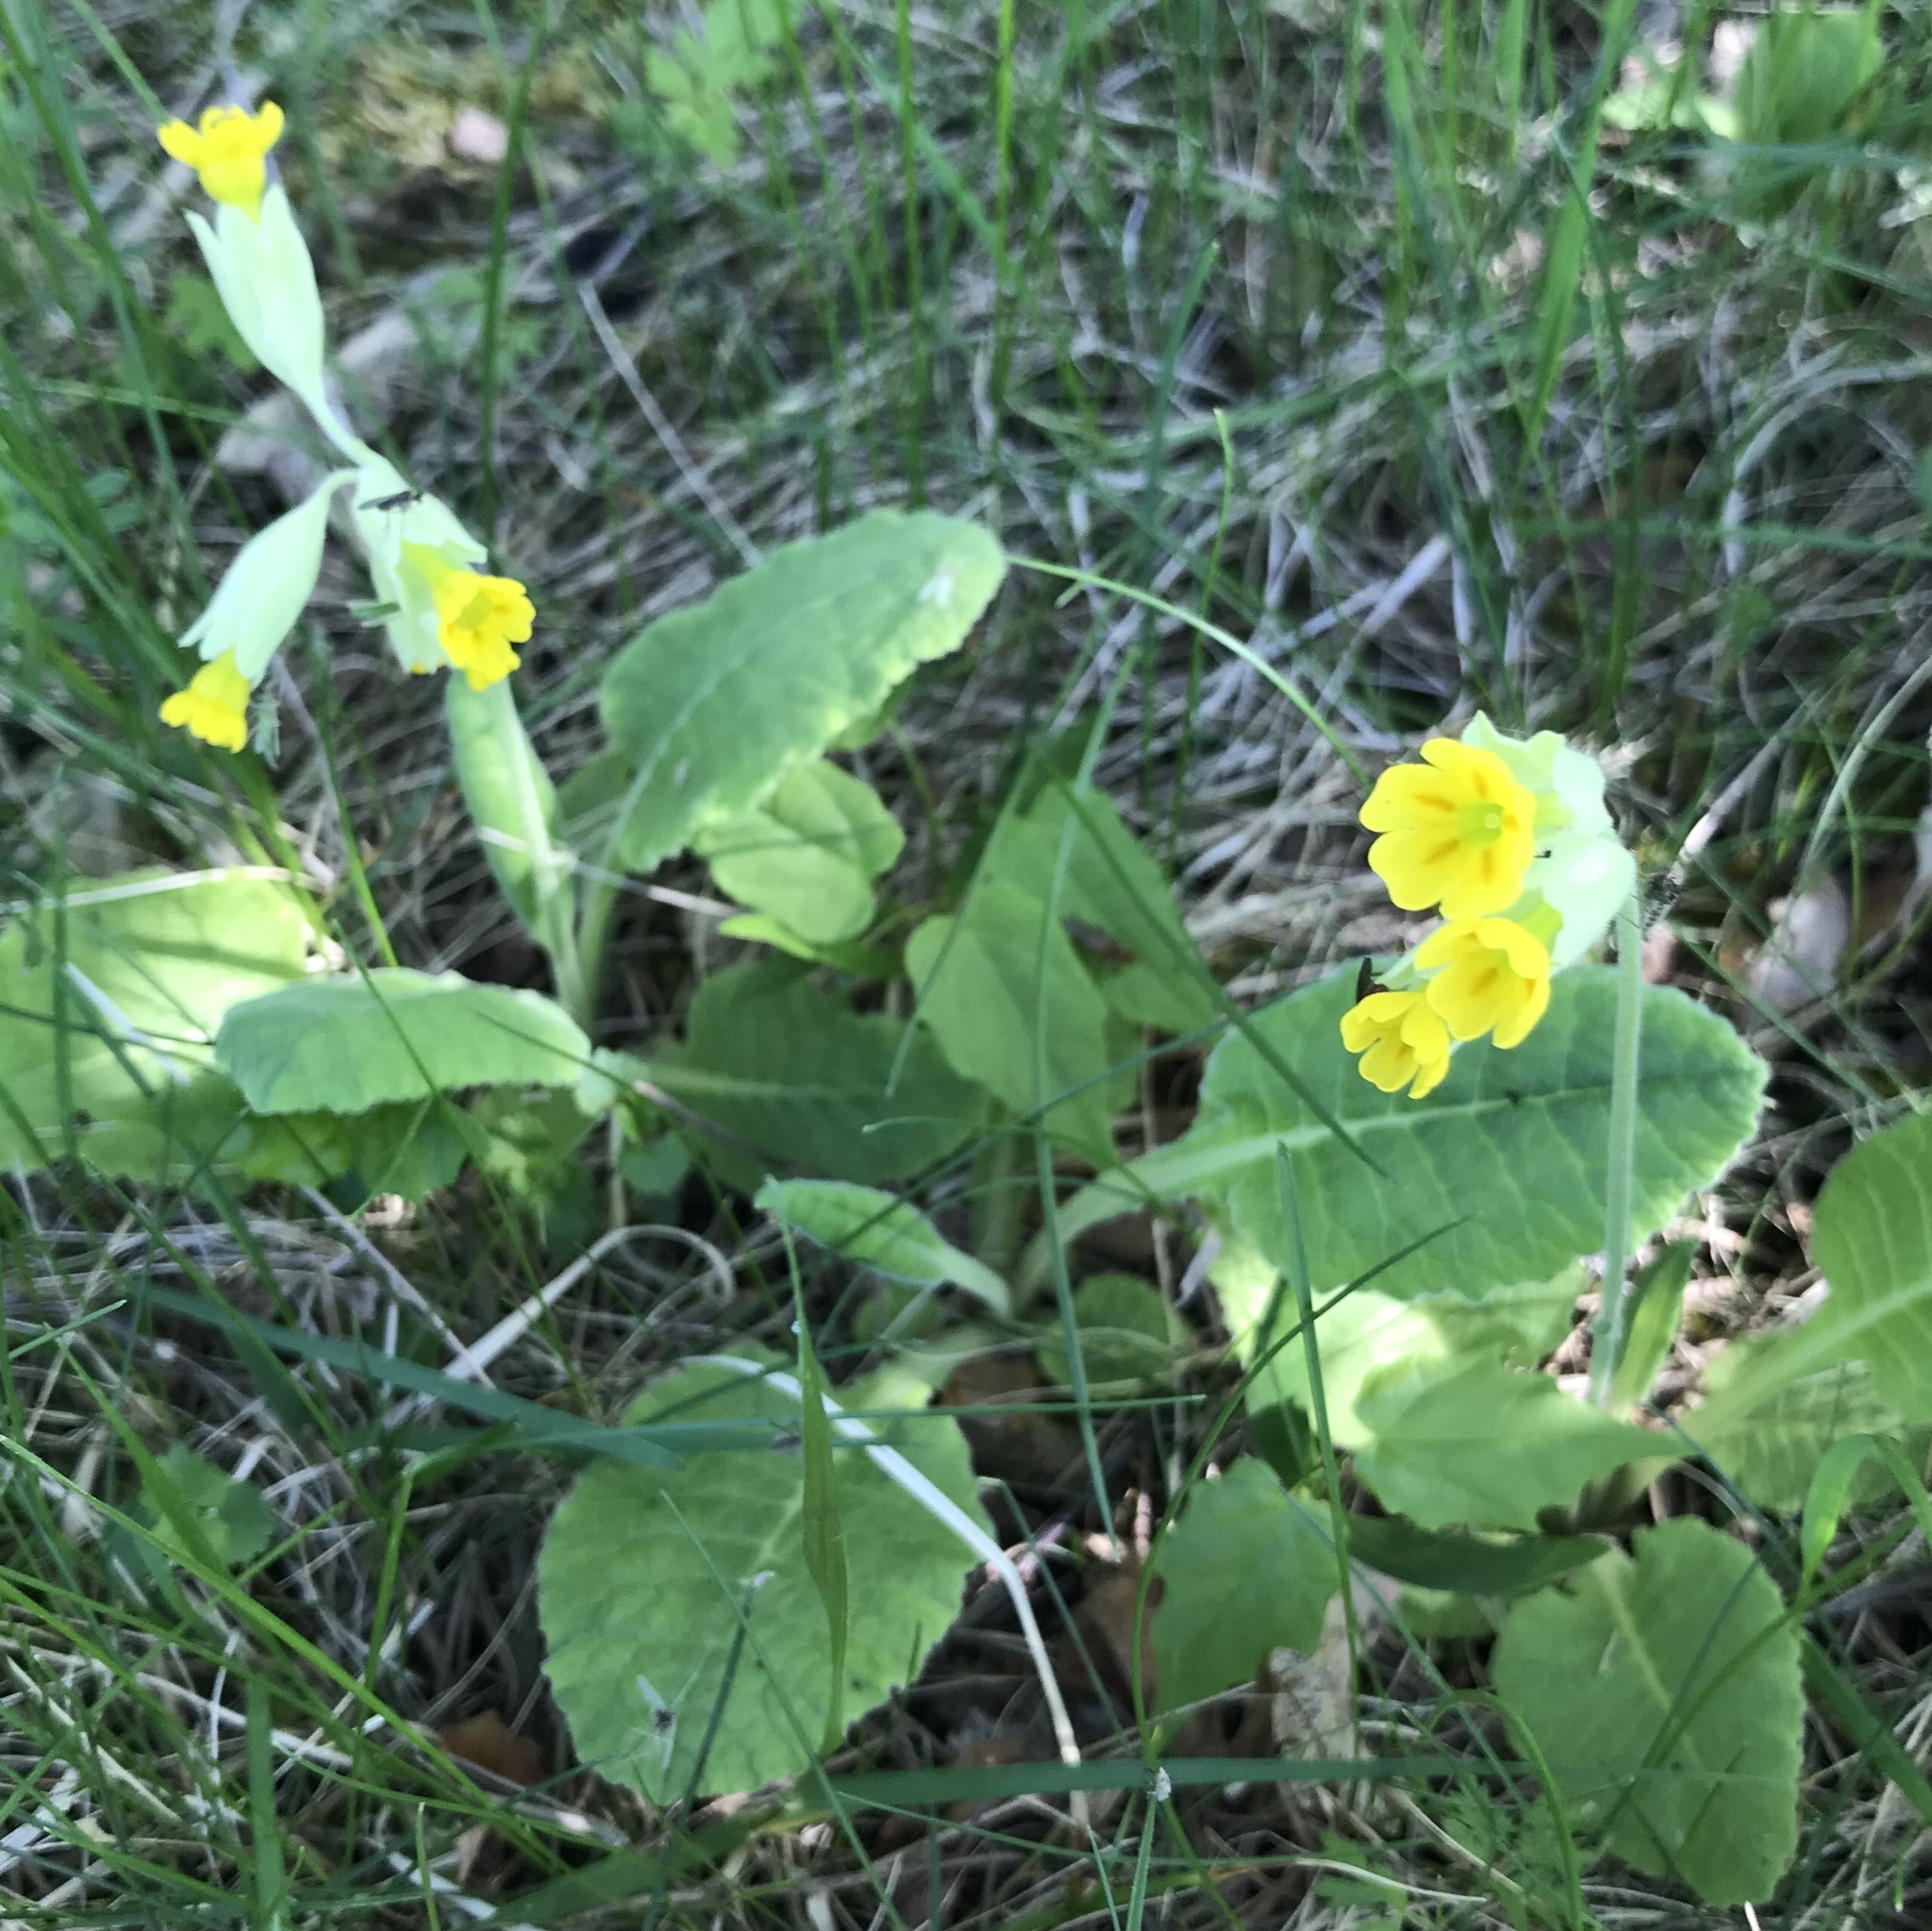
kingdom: Plantae
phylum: Tracheophyta
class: Magnoliopsida
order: Ericales
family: Primulaceae
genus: Primula
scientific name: Primula veris
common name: Cowslip
